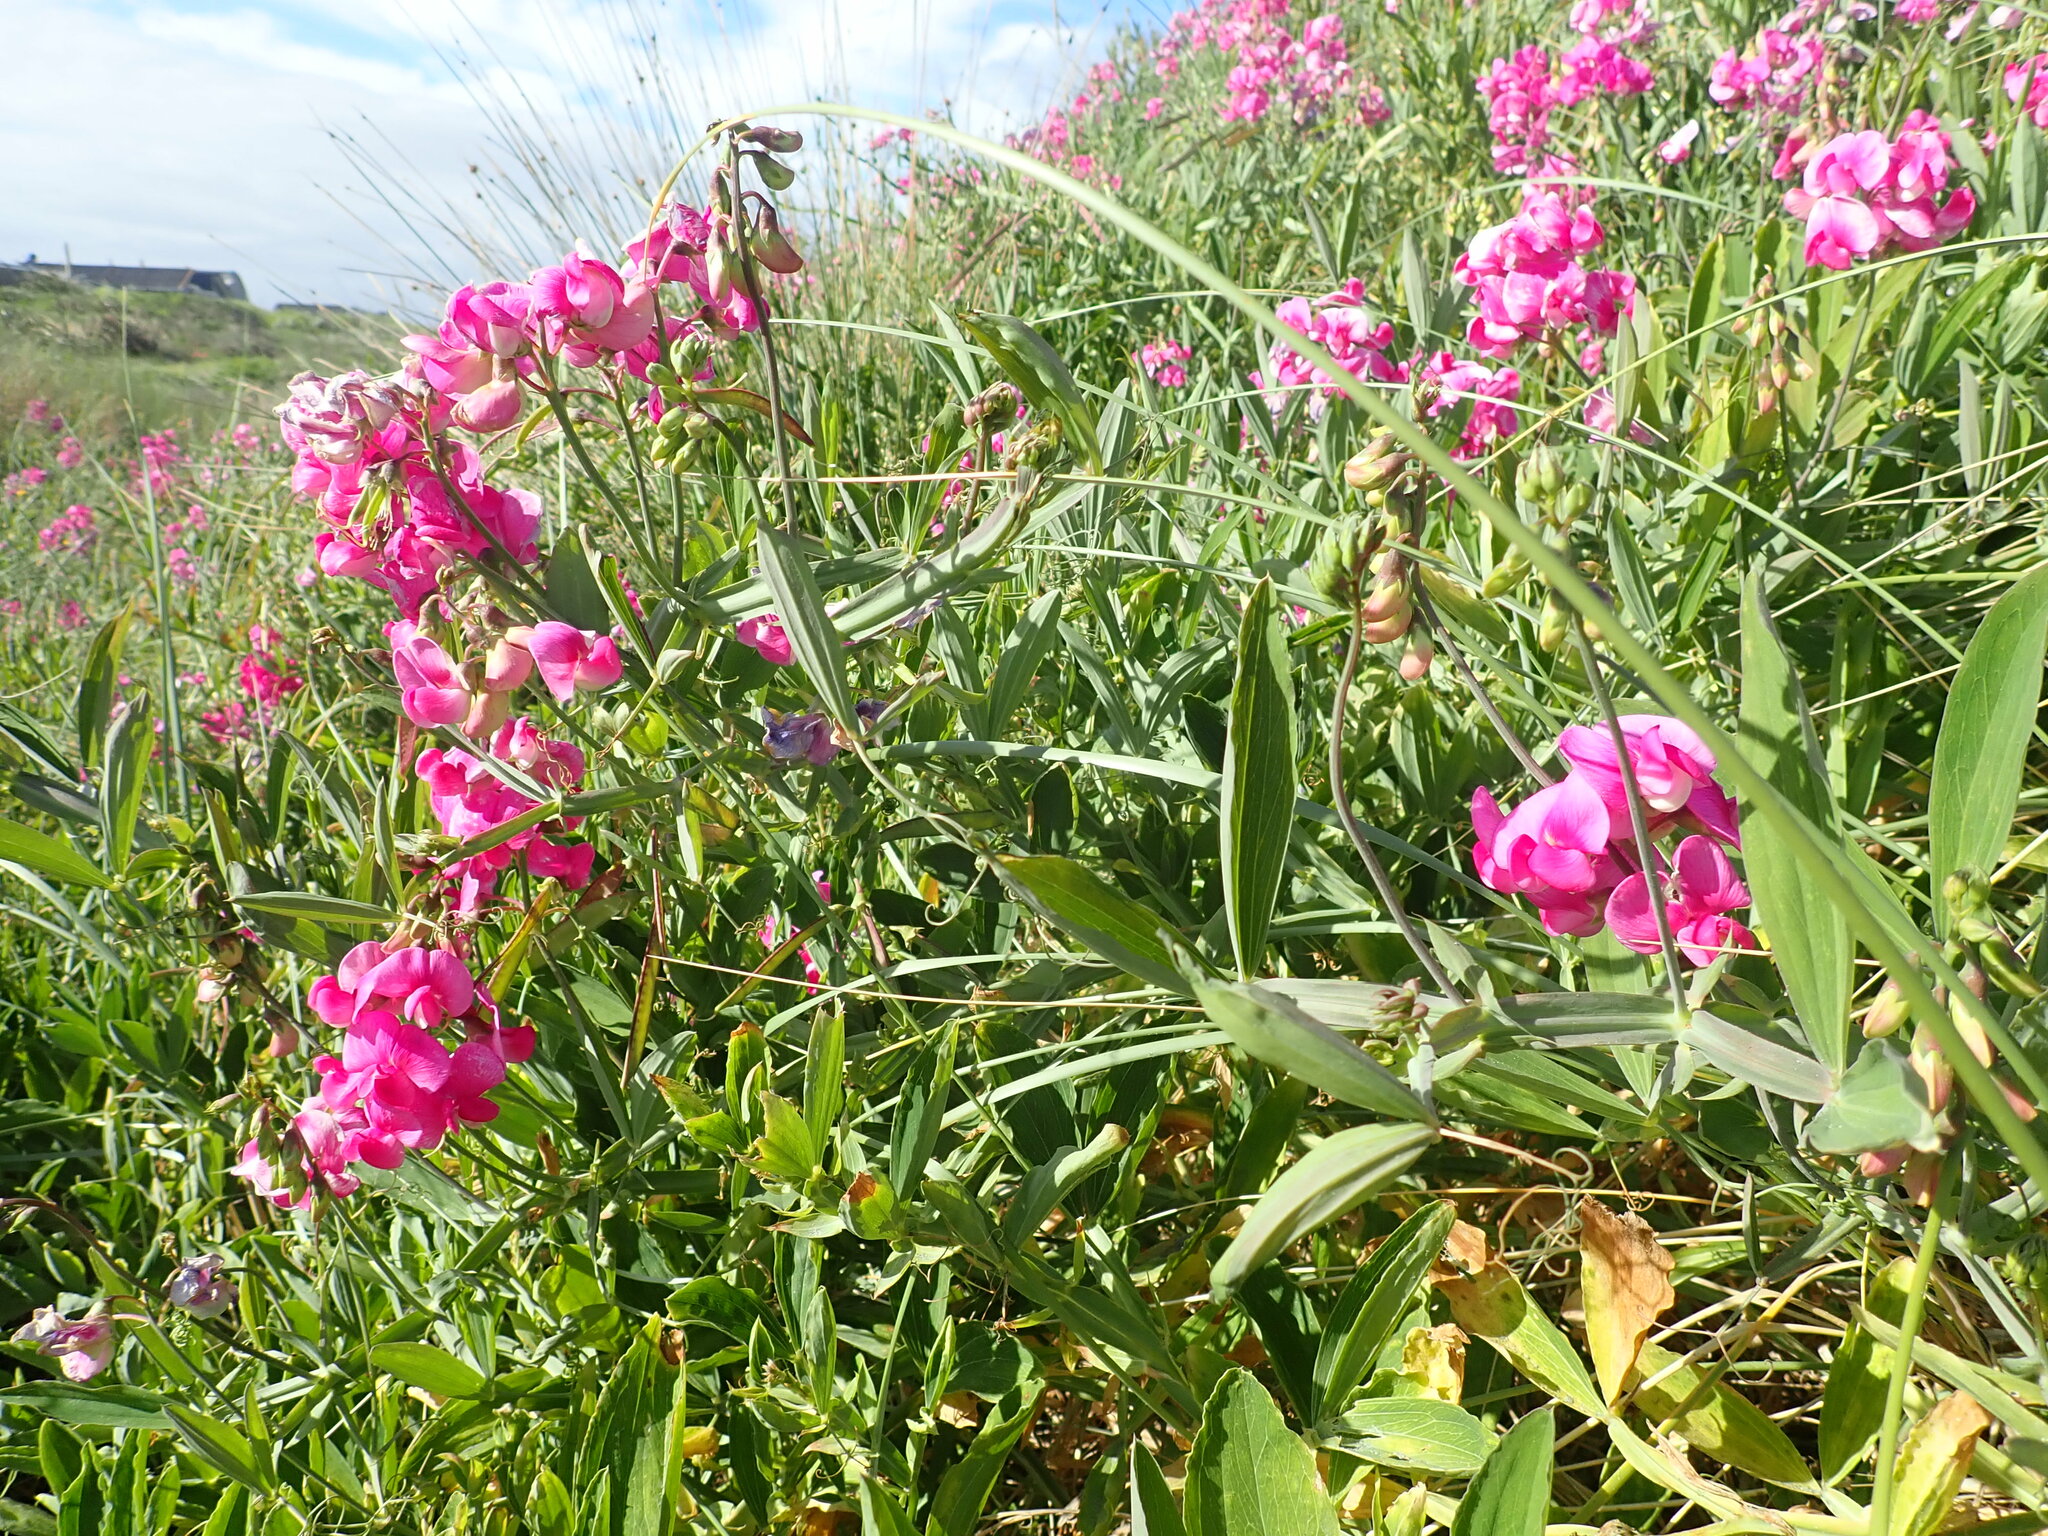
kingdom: Plantae
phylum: Tracheophyta
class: Magnoliopsida
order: Fabales
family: Fabaceae
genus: Lathyrus
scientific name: Lathyrus latifolius
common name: Perennial pea
